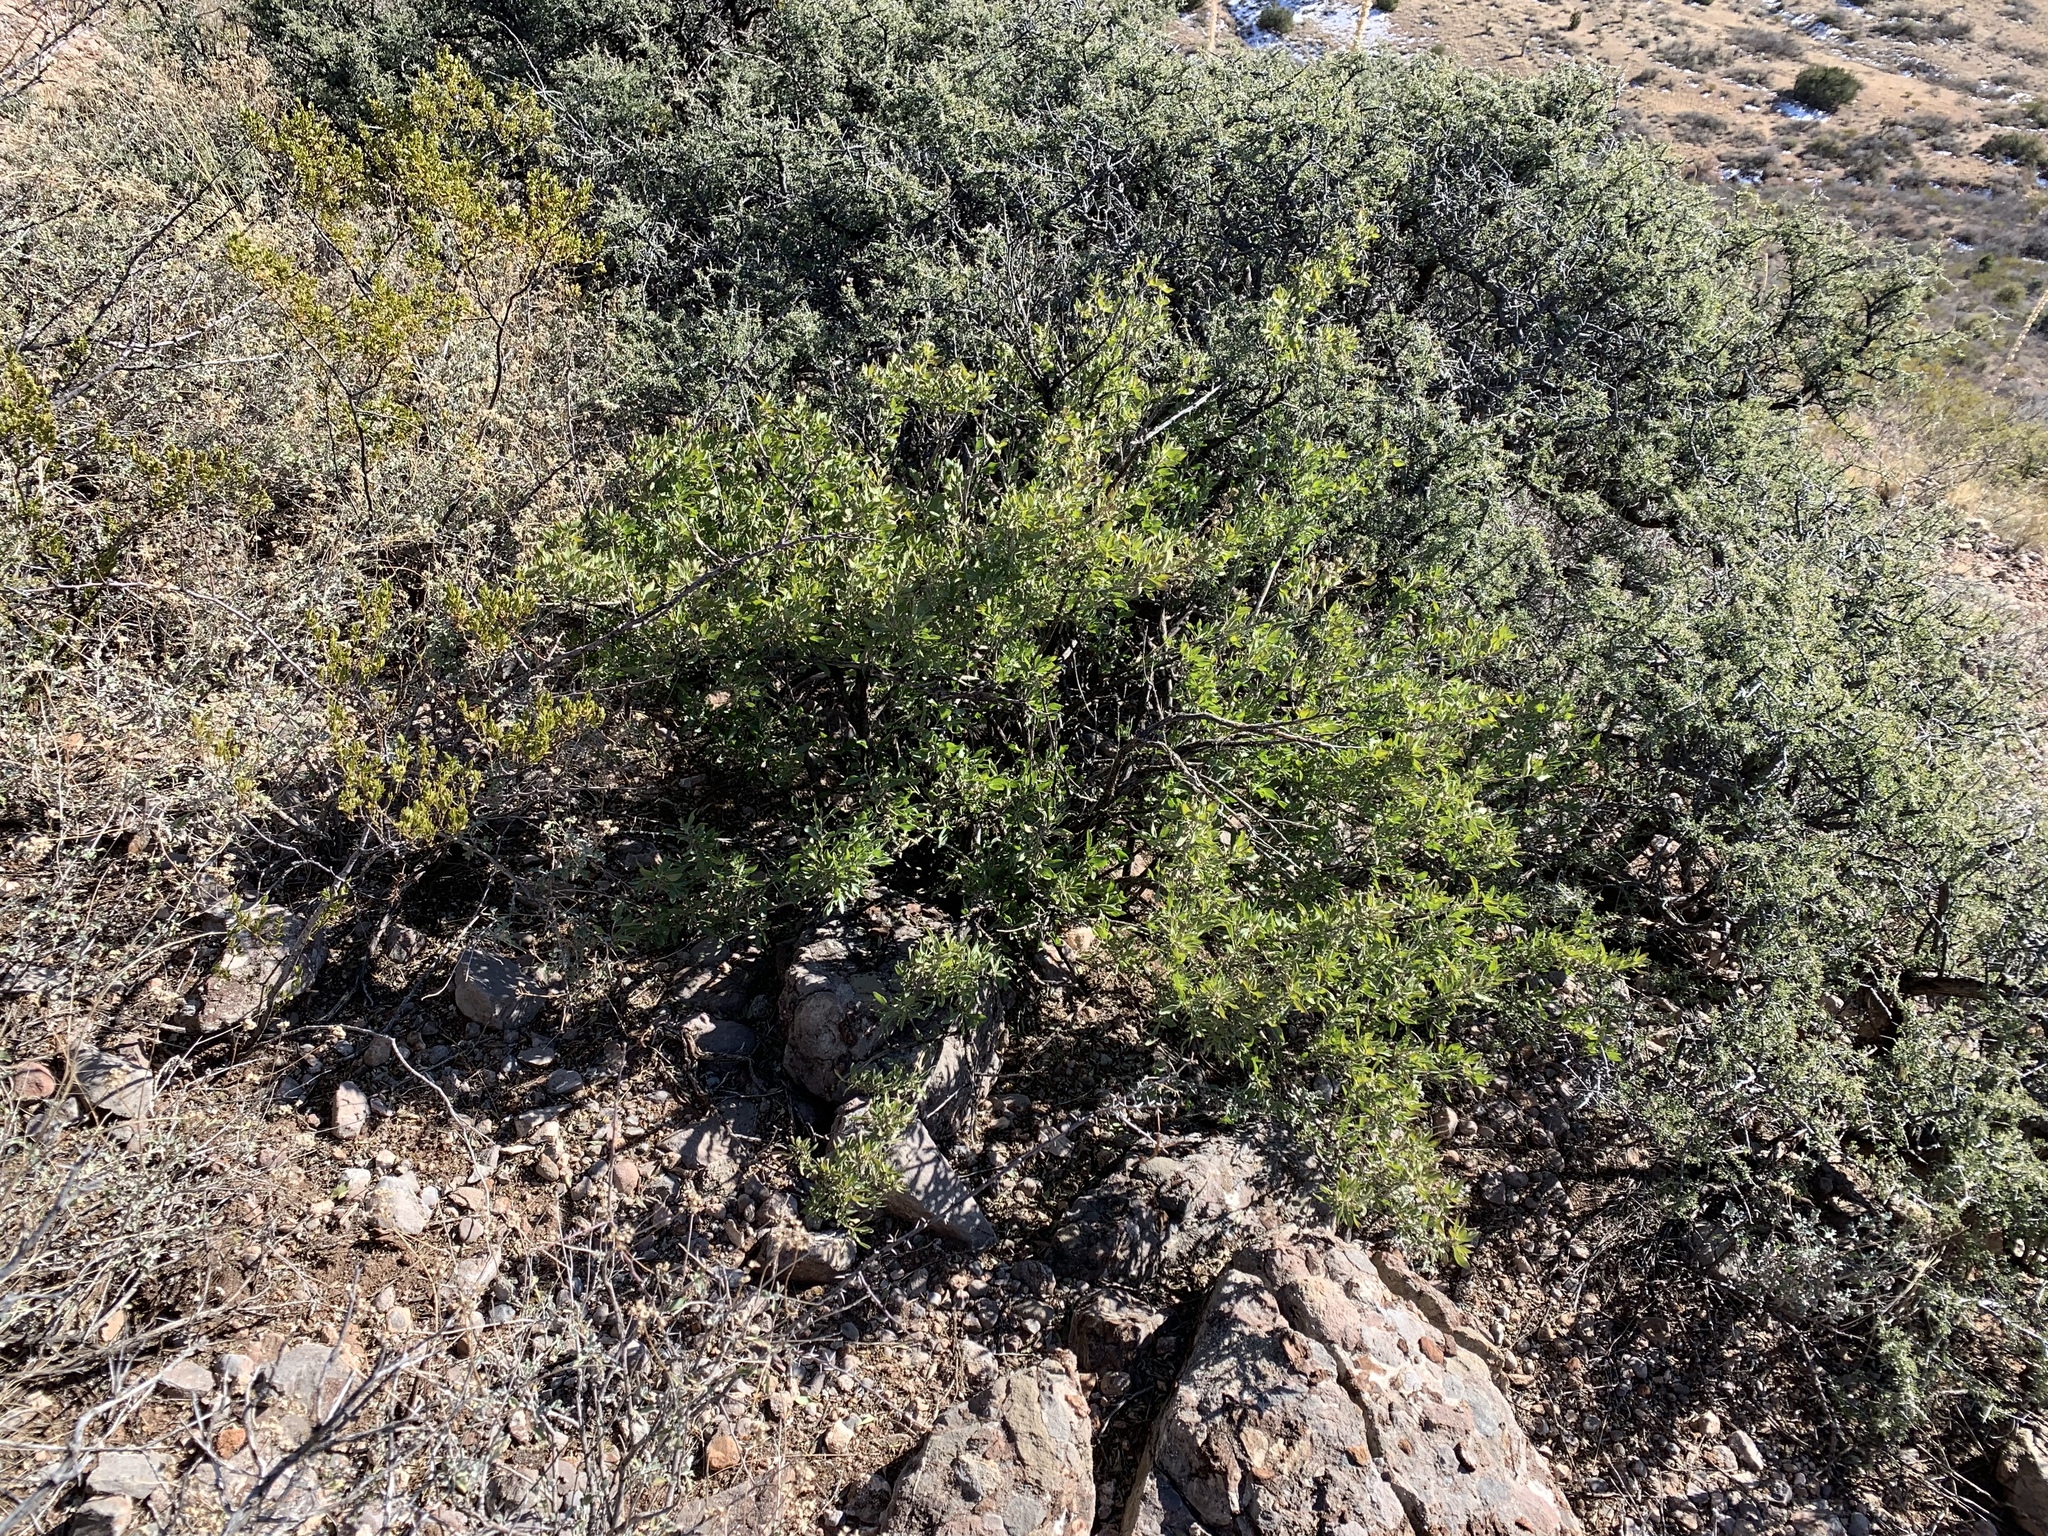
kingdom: Plantae
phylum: Tracheophyta
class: Magnoliopsida
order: Asterales
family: Asteraceae
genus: Flourensia
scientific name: Flourensia cernua
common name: Varnishbush
